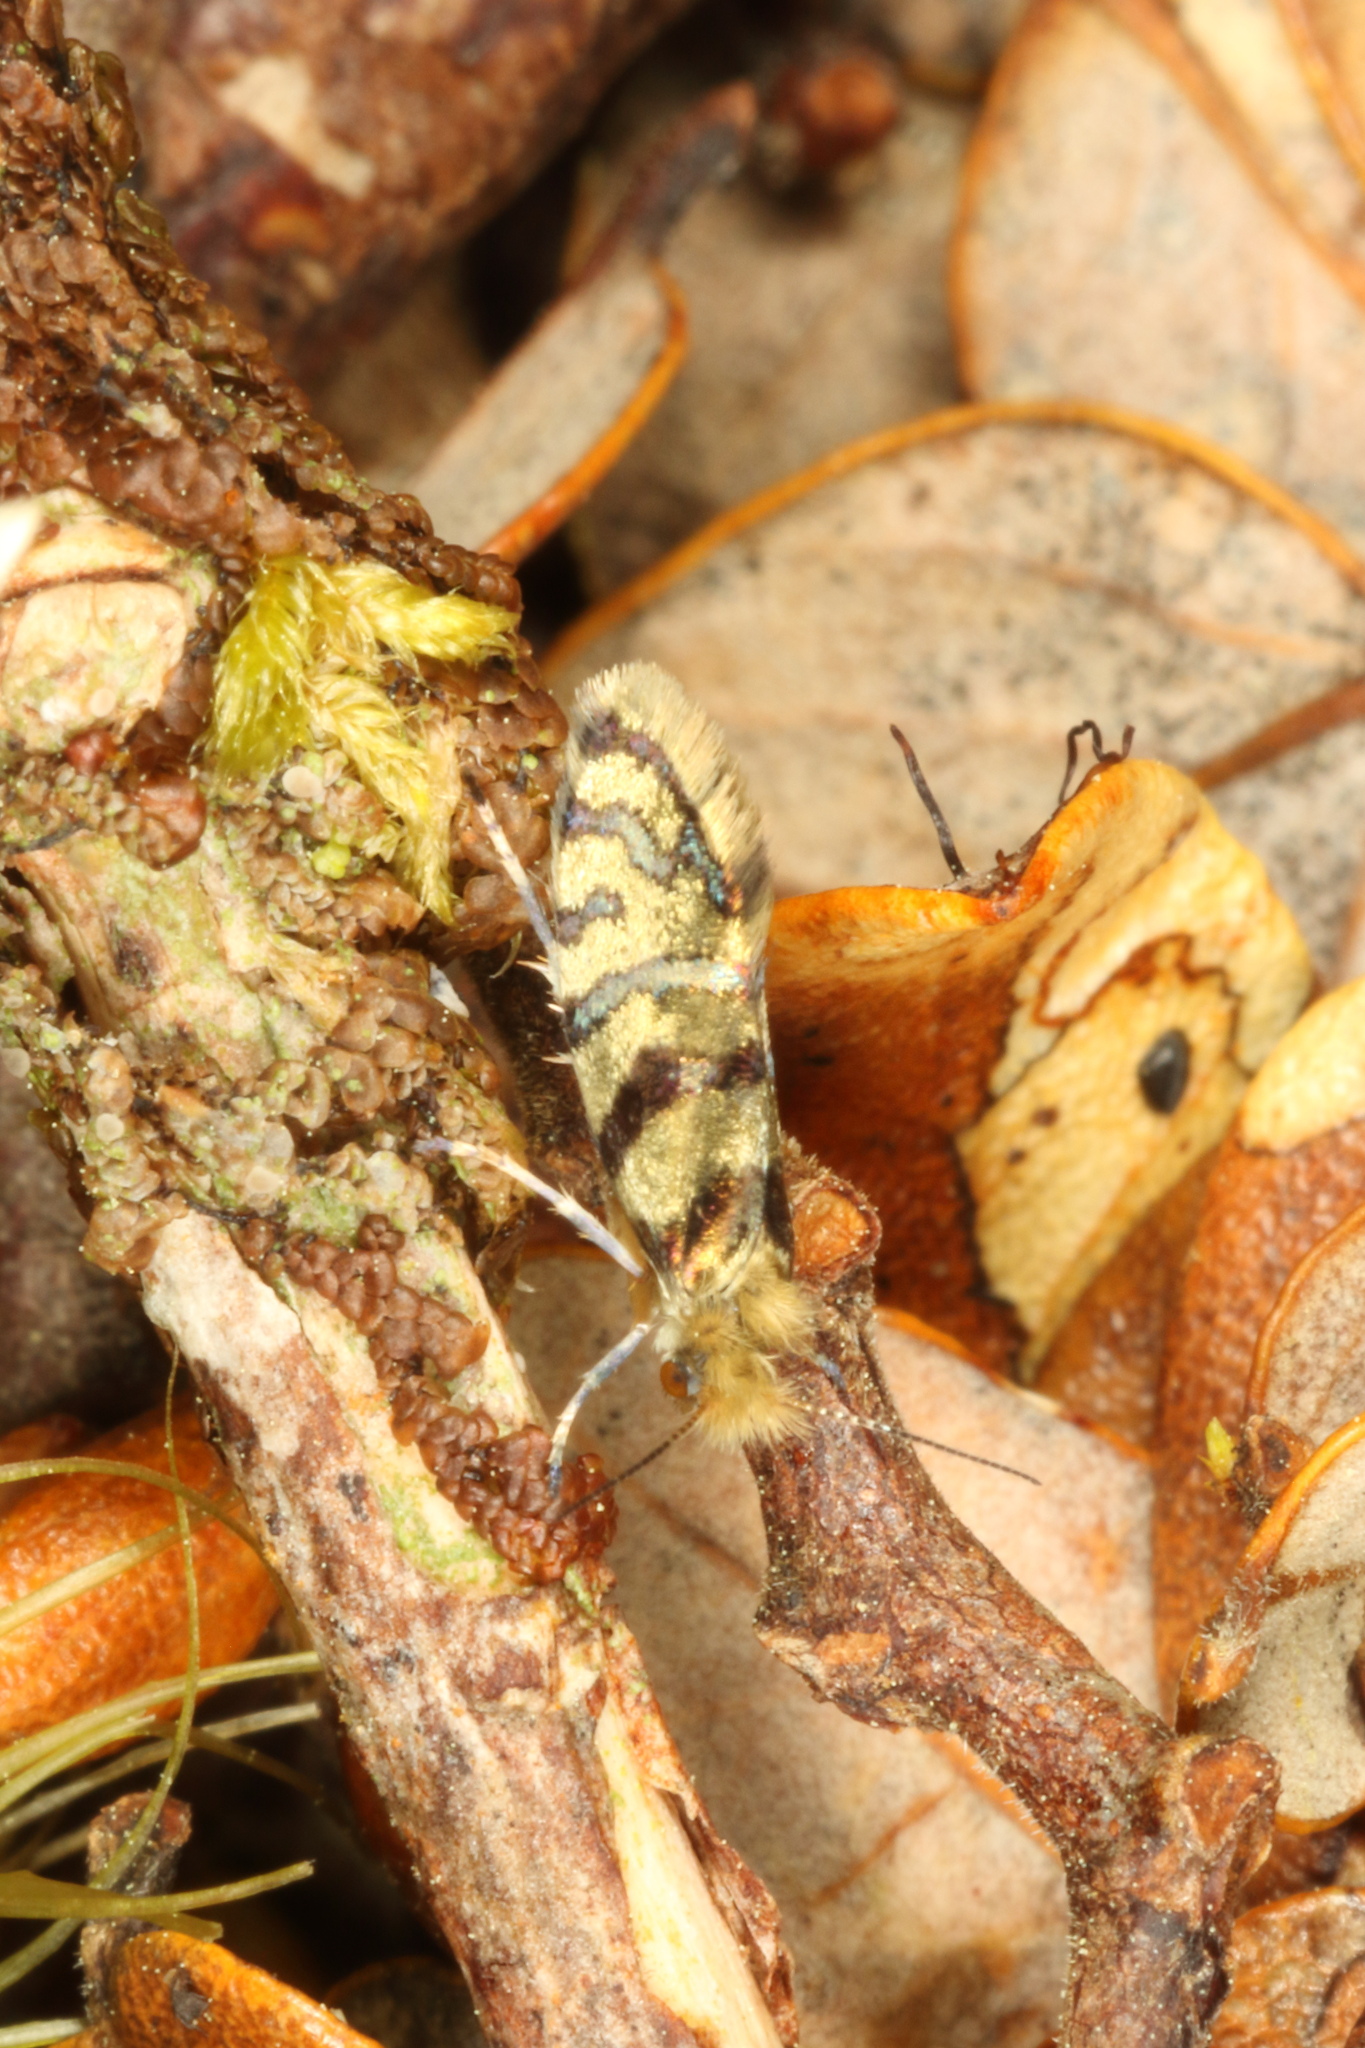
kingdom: Animalia
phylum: Arthropoda
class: Insecta
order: Lepidoptera
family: Micropterigidae
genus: Micropardalis
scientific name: Micropardalis aurella
